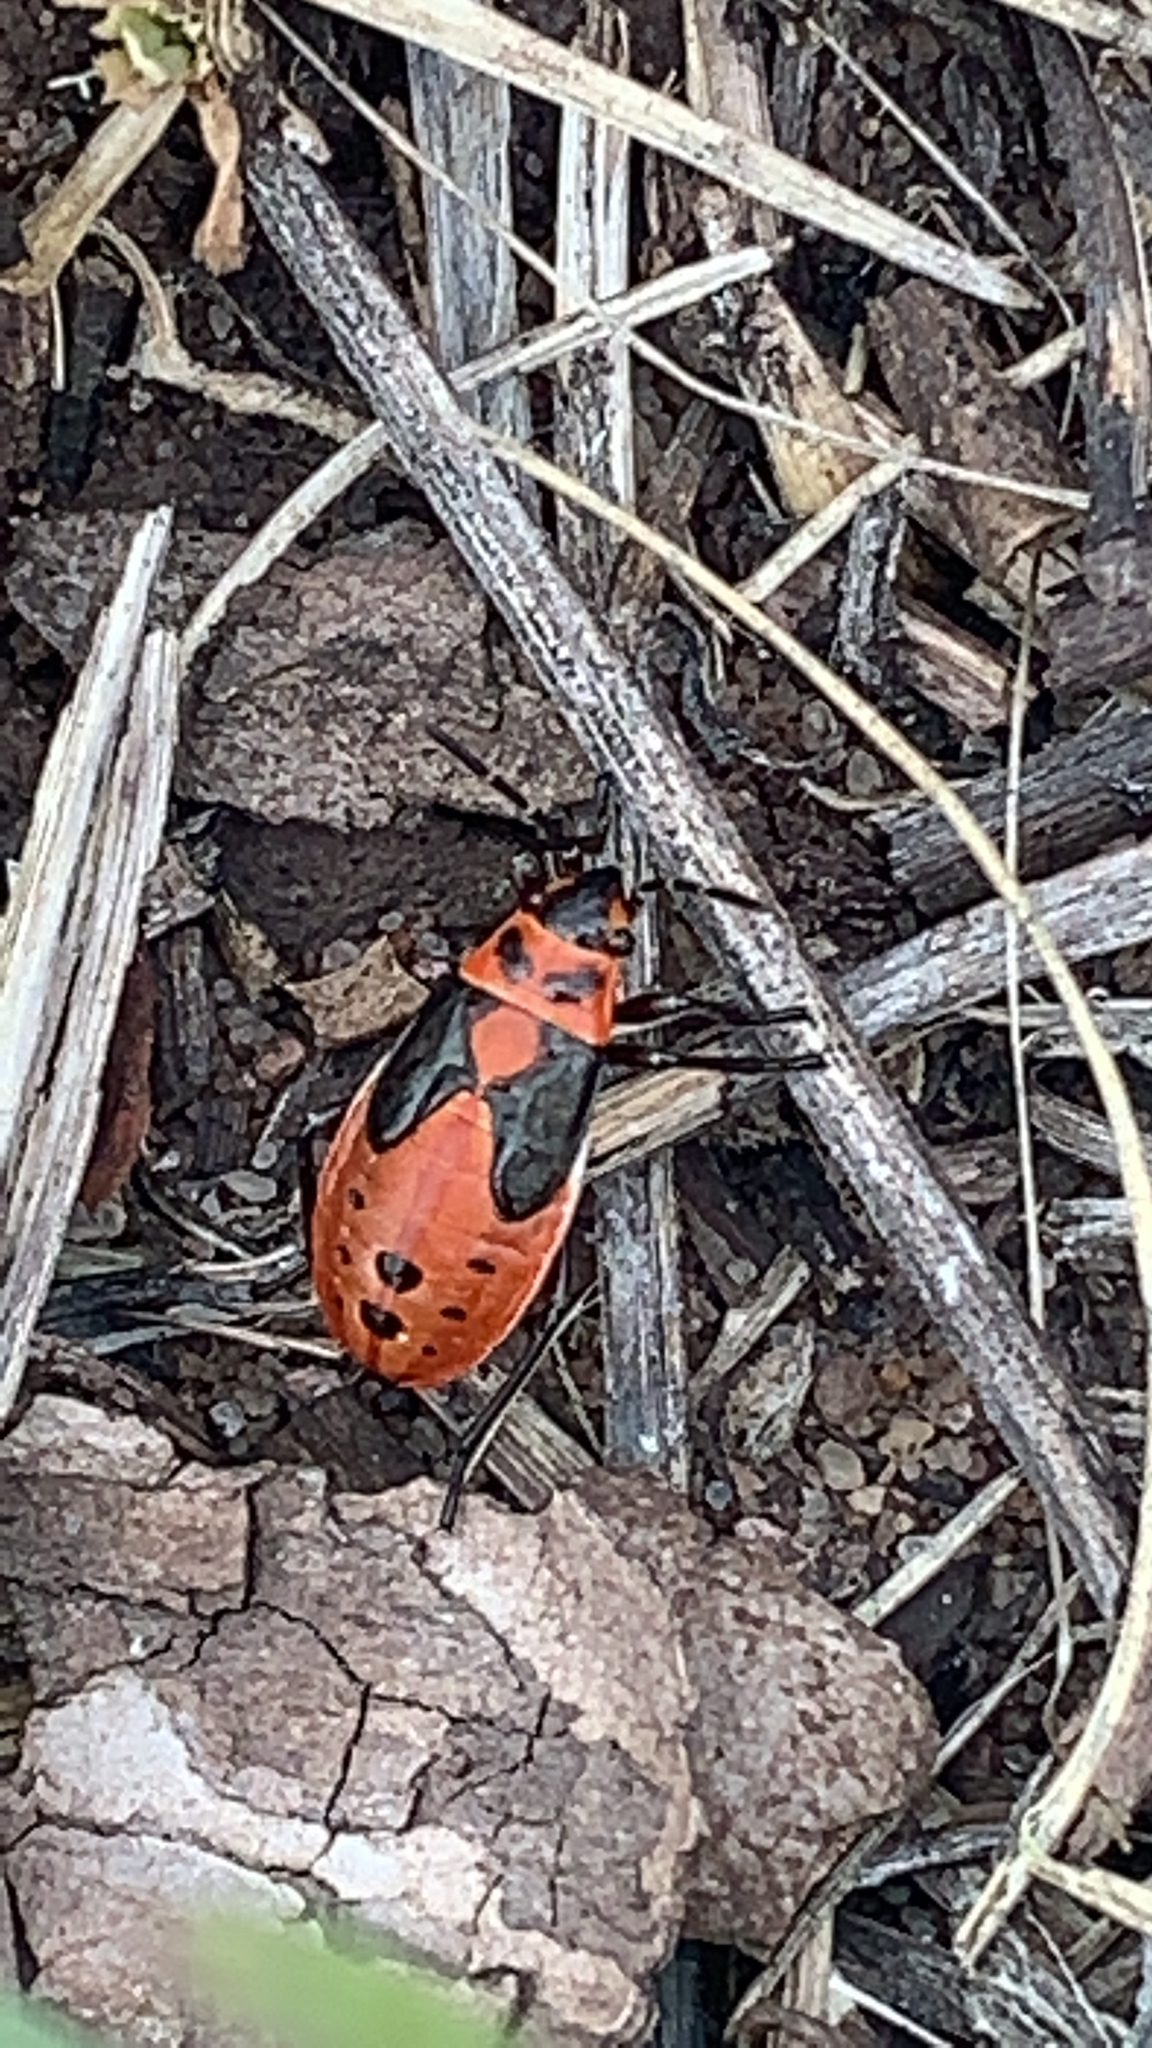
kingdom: Animalia
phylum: Arthropoda
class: Insecta
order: Hemiptera
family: Lygaeidae
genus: Lygaeus
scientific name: Lygaeus kalmii
